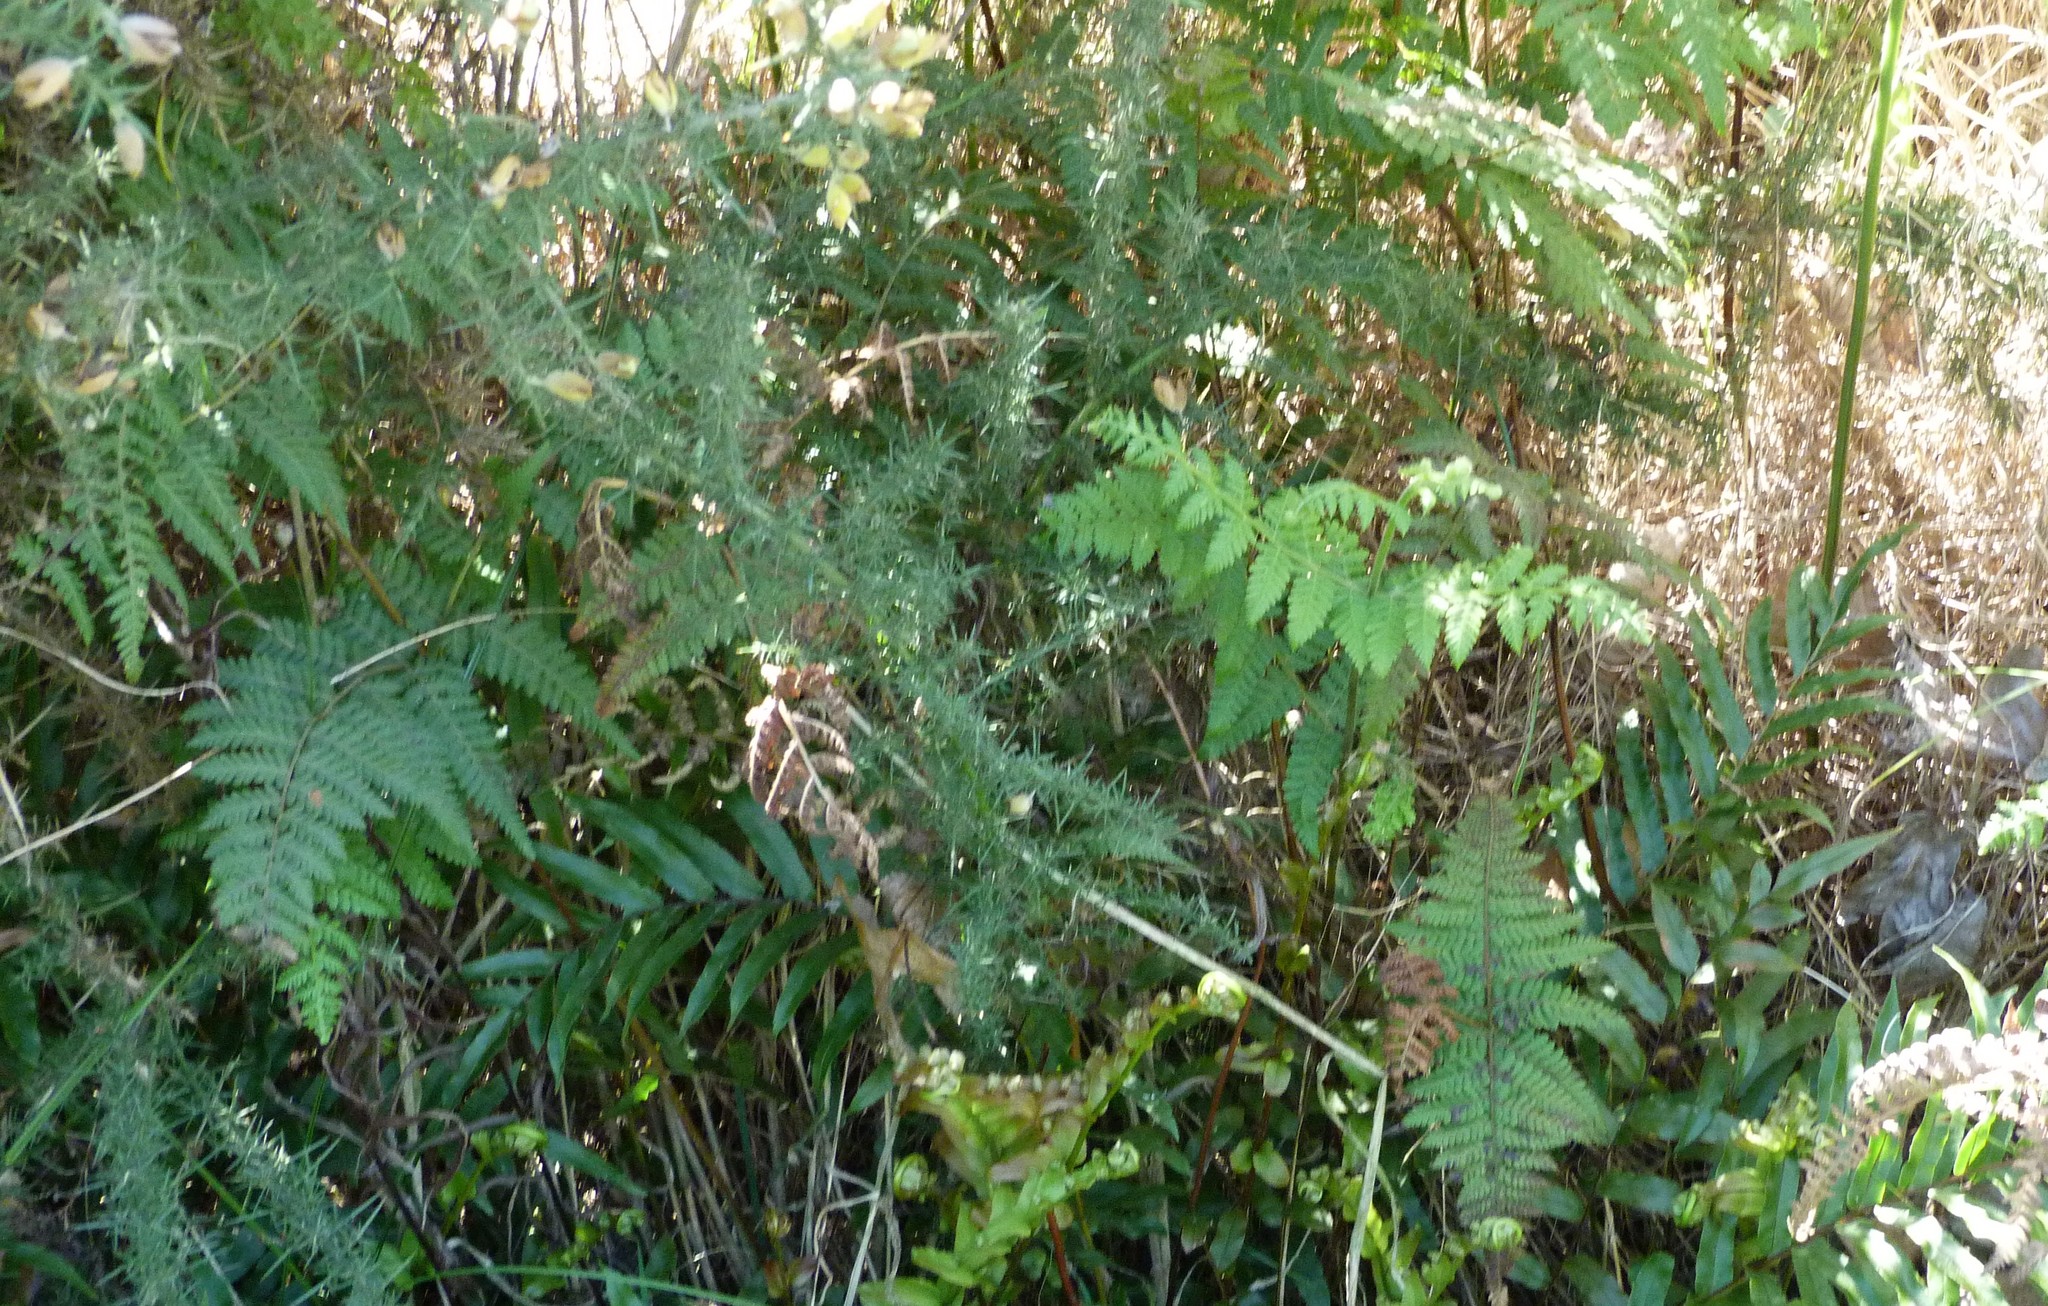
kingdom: Plantae
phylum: Tracheophyta
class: Polypodiopsida
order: Polypodiales
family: Dennstaedtiaceae
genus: Hypolepis
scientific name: Hypolepis ambigua
